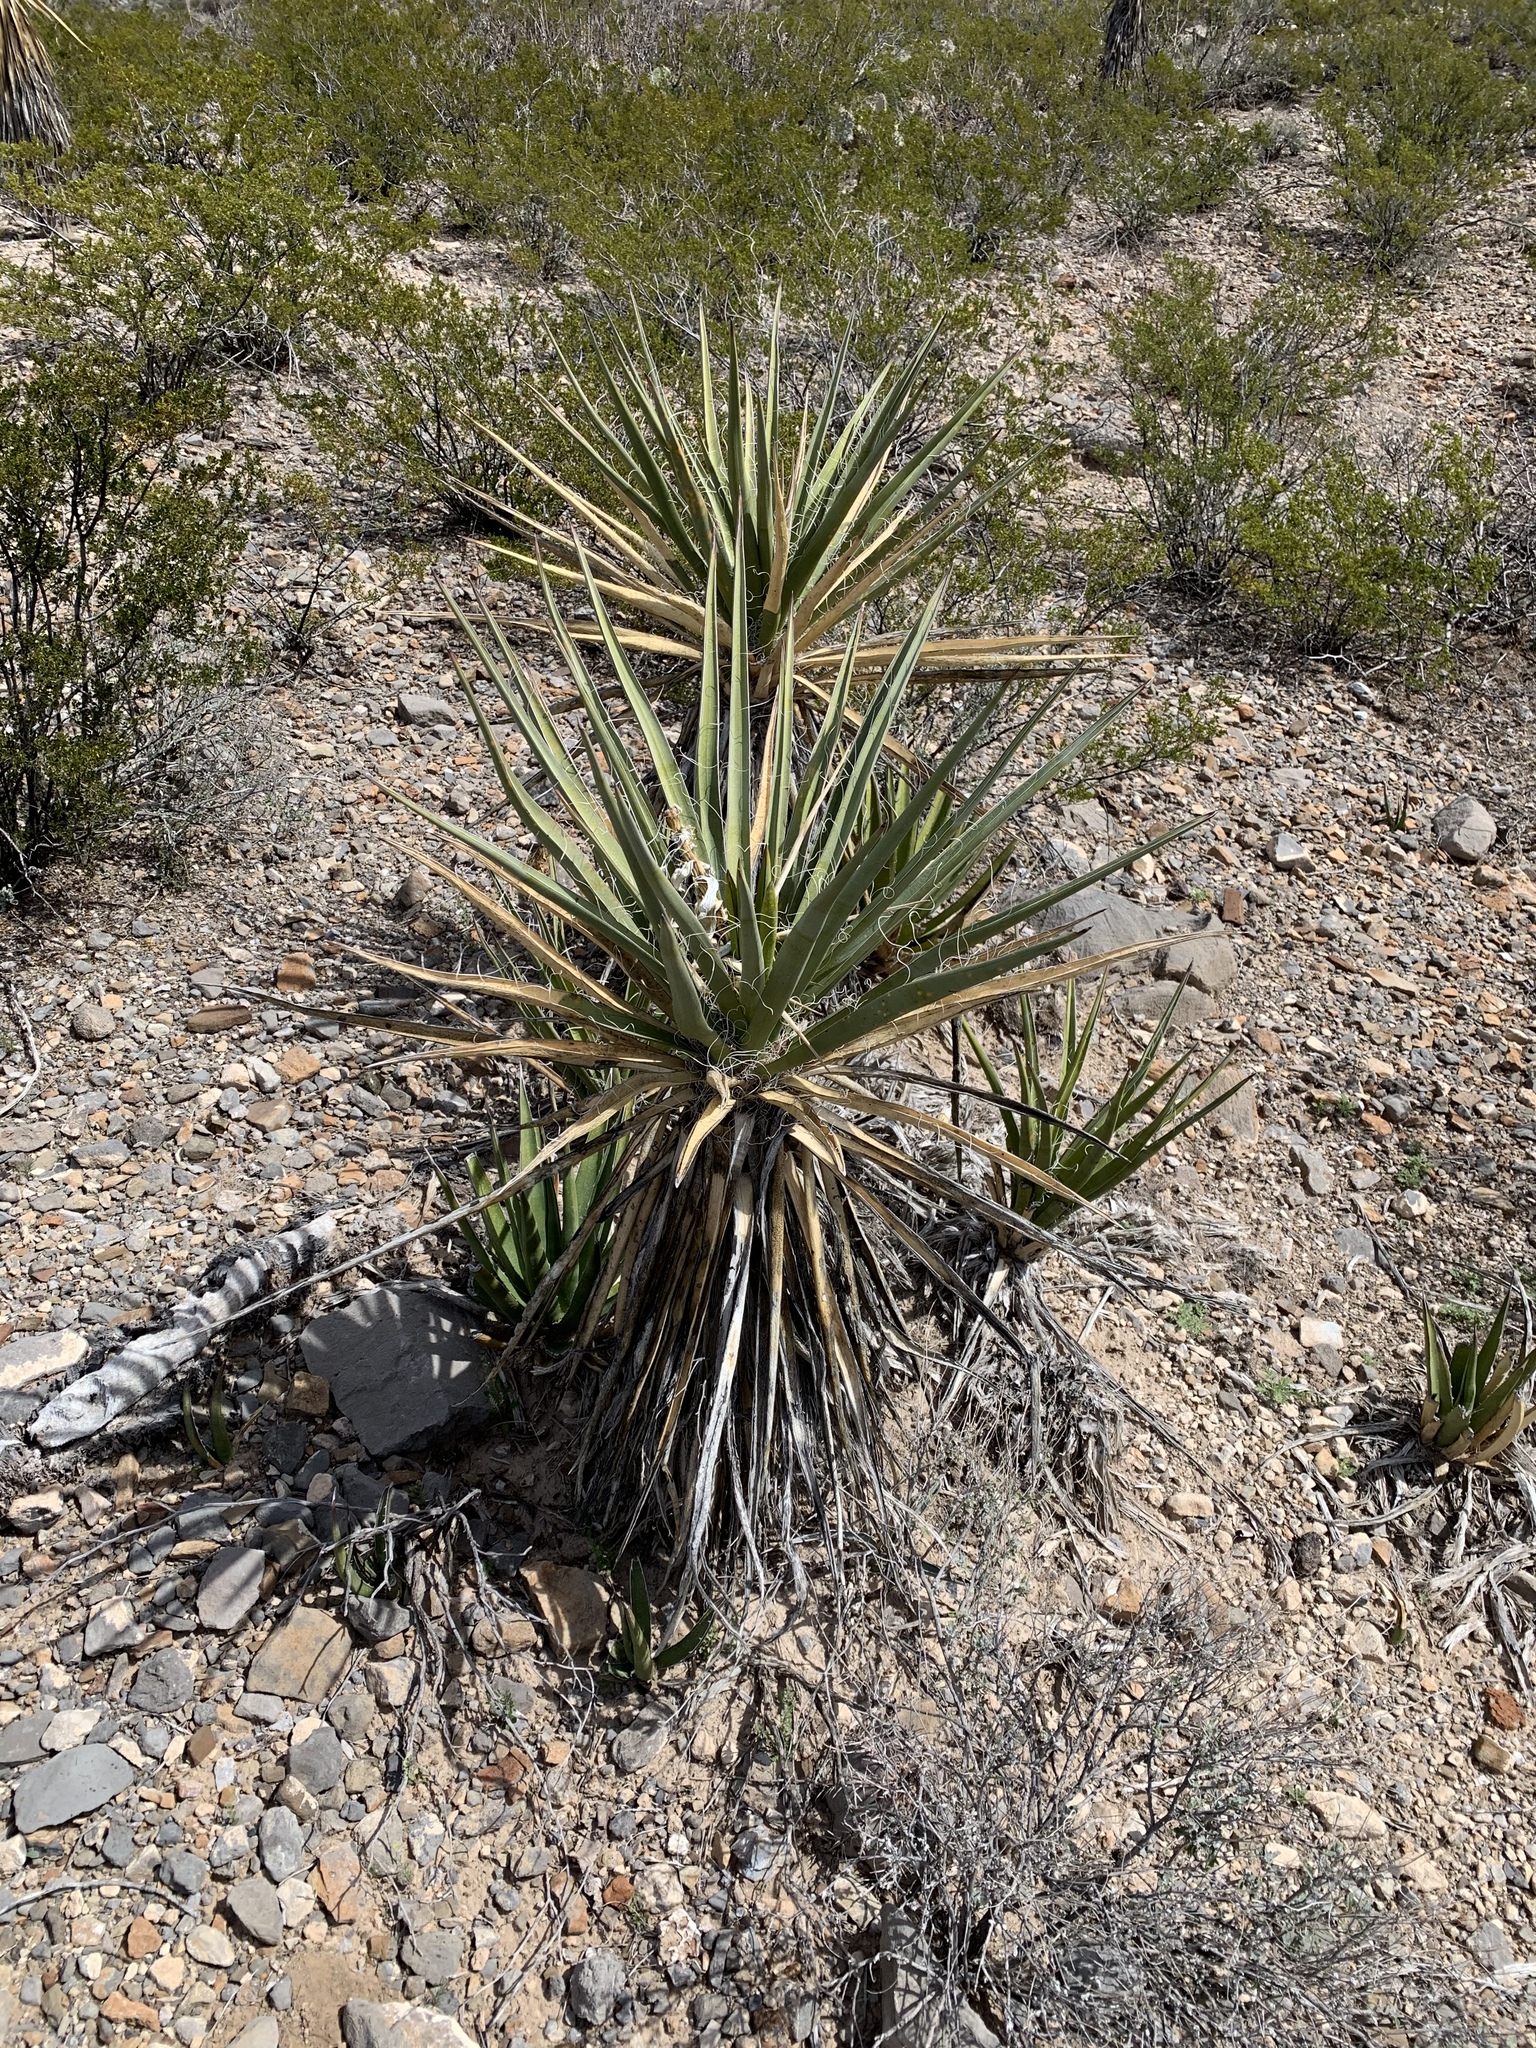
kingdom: Plantae
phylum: Tracheophyta
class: Liliopsida
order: Asparagales
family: Asparagaceae
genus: Yucca
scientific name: Yucca treculiana
